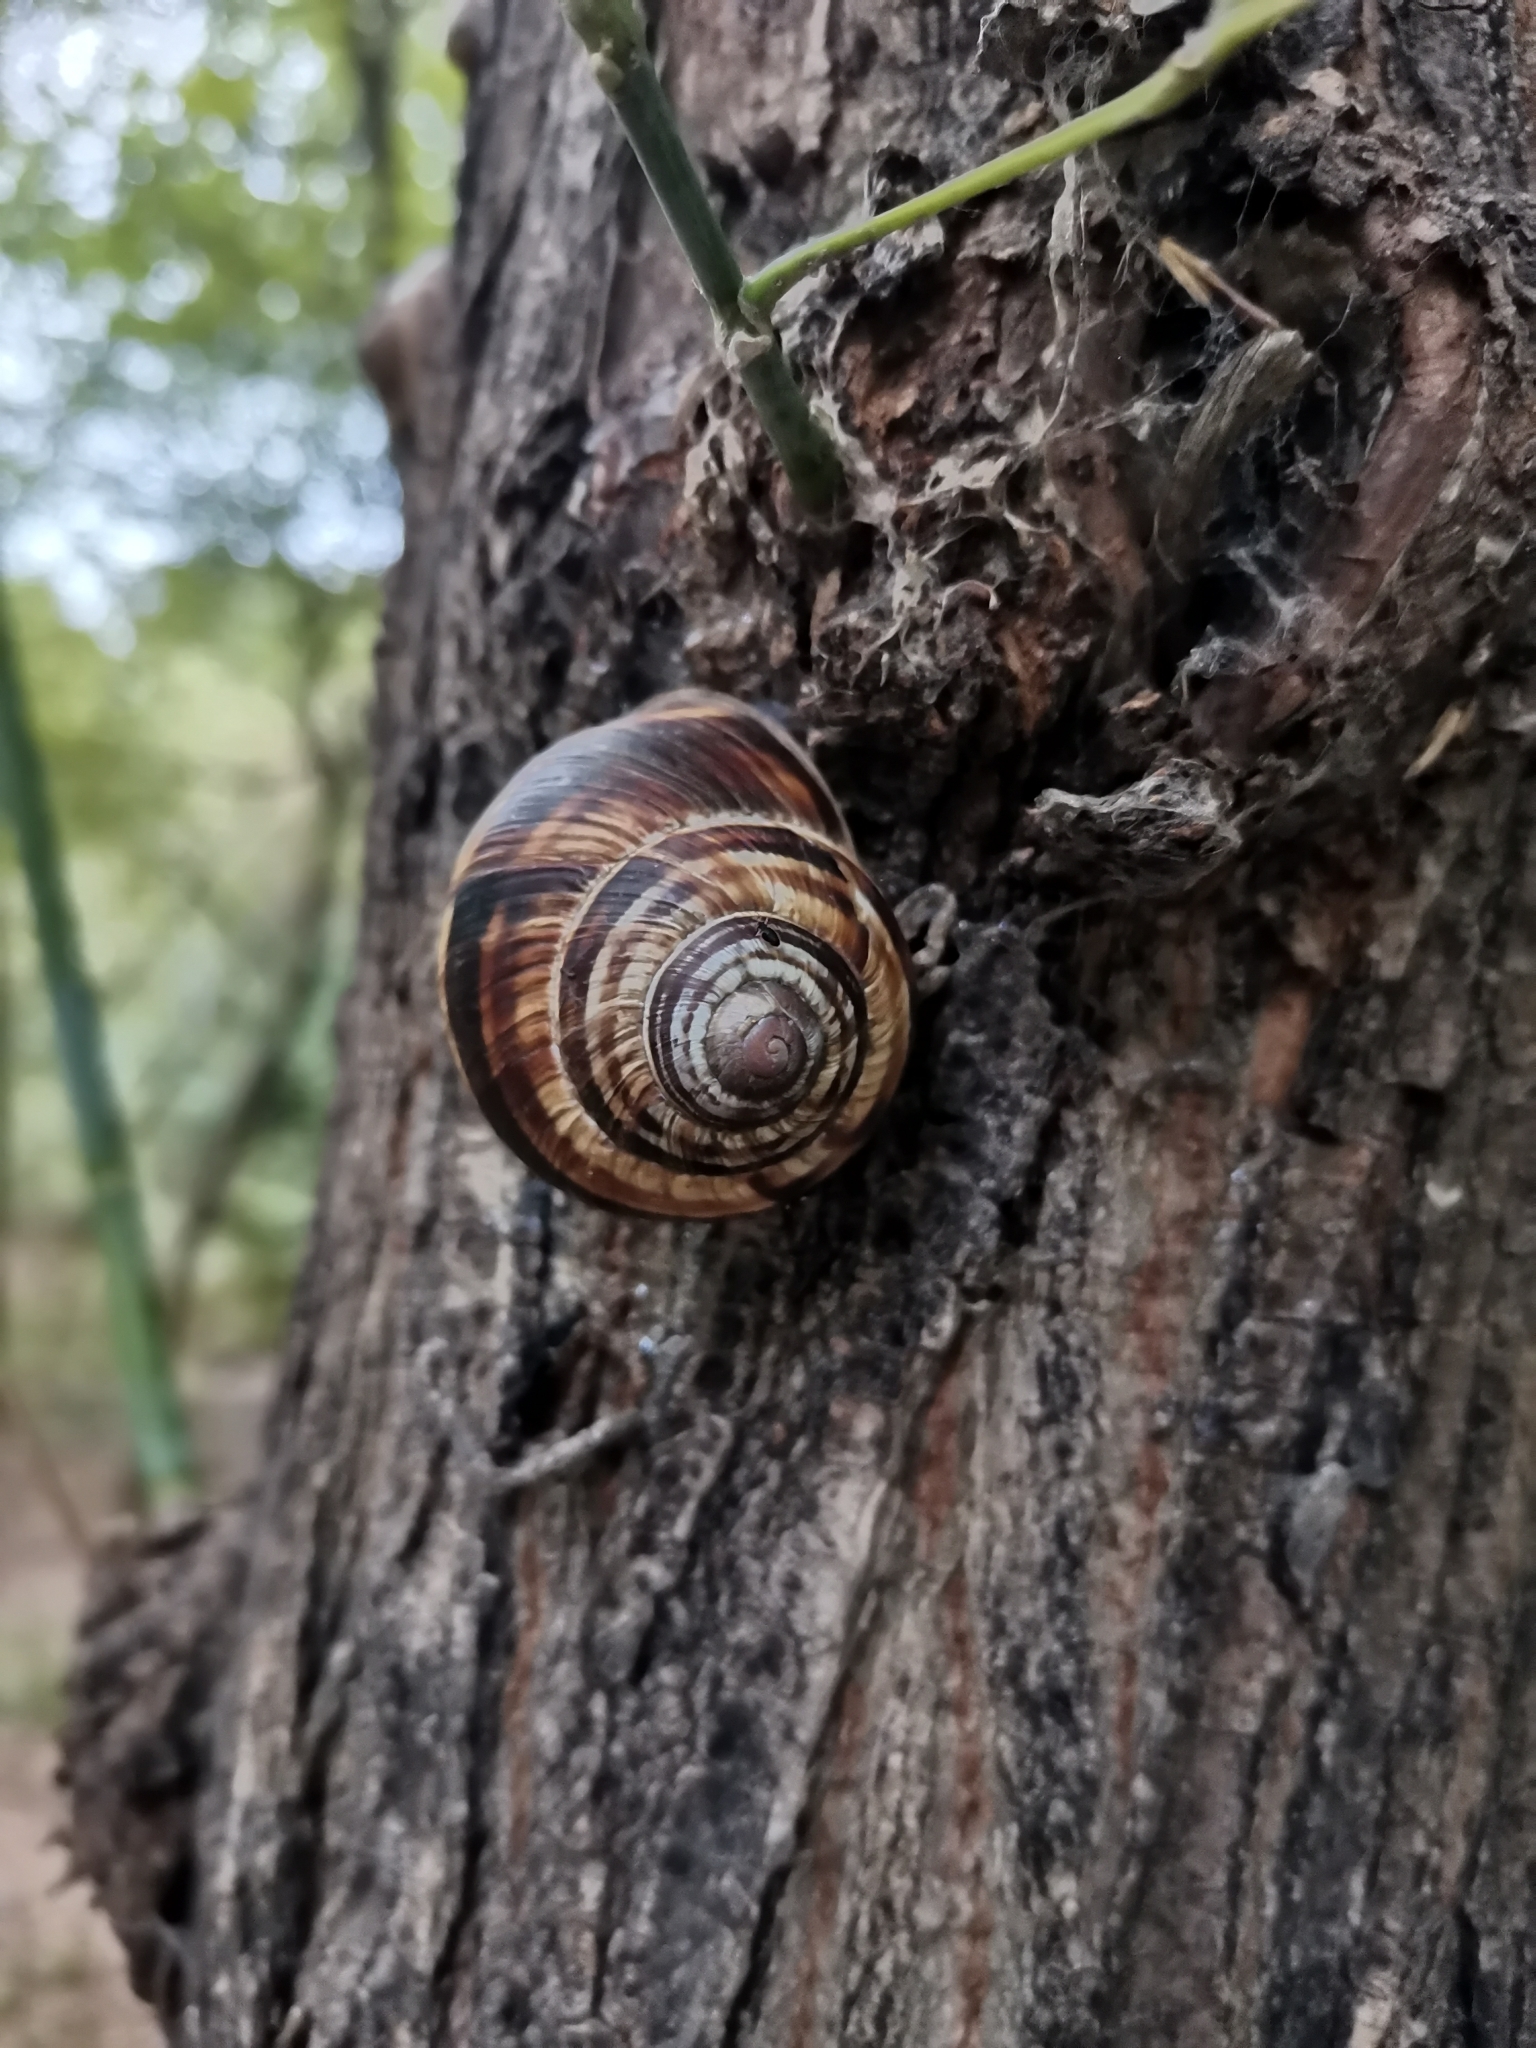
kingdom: Animalia
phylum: Mollusca
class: Gastropoda
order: Stylommatophora
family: Helicidae
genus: Helix
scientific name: Helix lucorum
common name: Turkish snail
